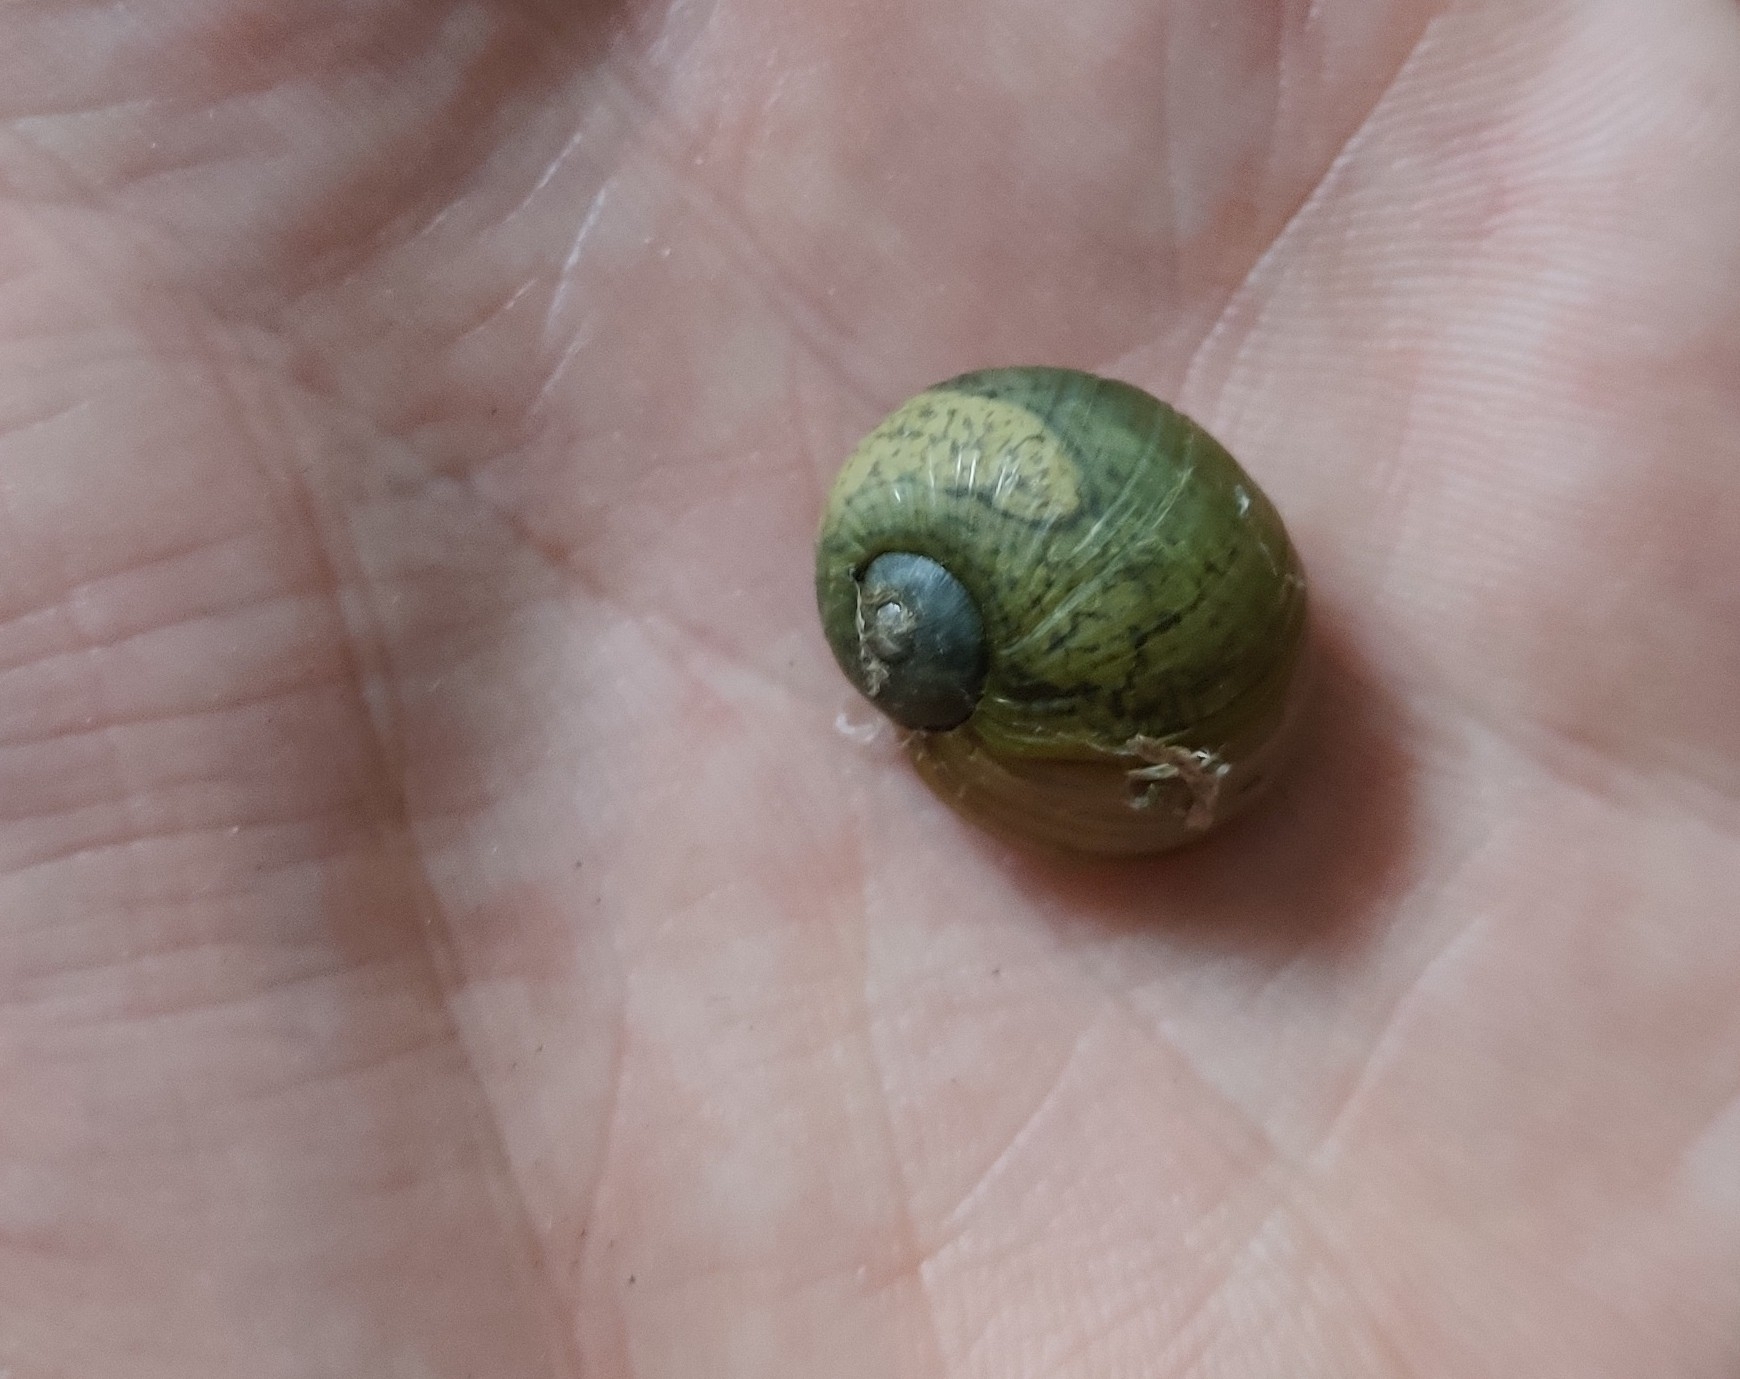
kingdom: Animalia
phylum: Mollusca
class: Gastropoda
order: Stylommatophora
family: Helicidae
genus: Cantareus
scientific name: Cantareus apertus
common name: Green gardensnail
